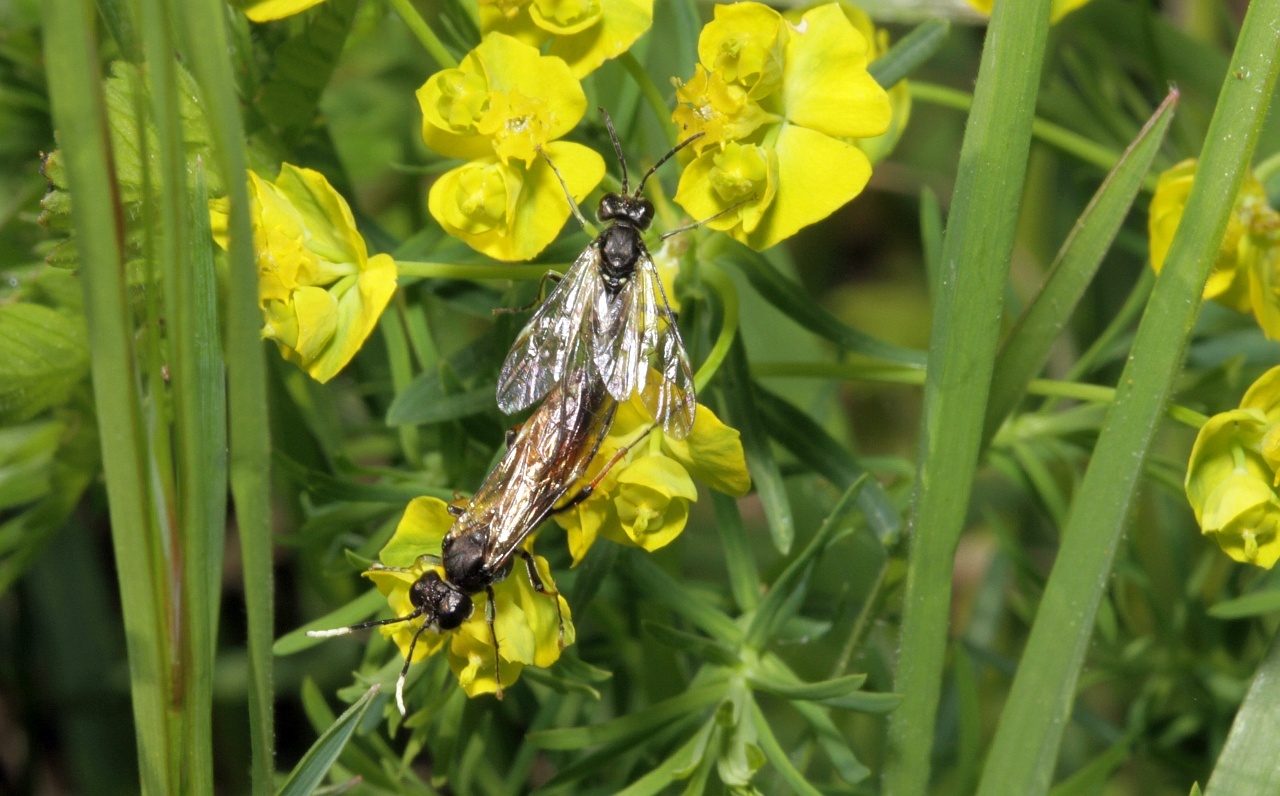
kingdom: Animalia
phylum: Arthropoda
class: Insecta
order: Hymenoptera
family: Tenthredinidae
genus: Tenthredo
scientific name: Tenthredo solitaria
